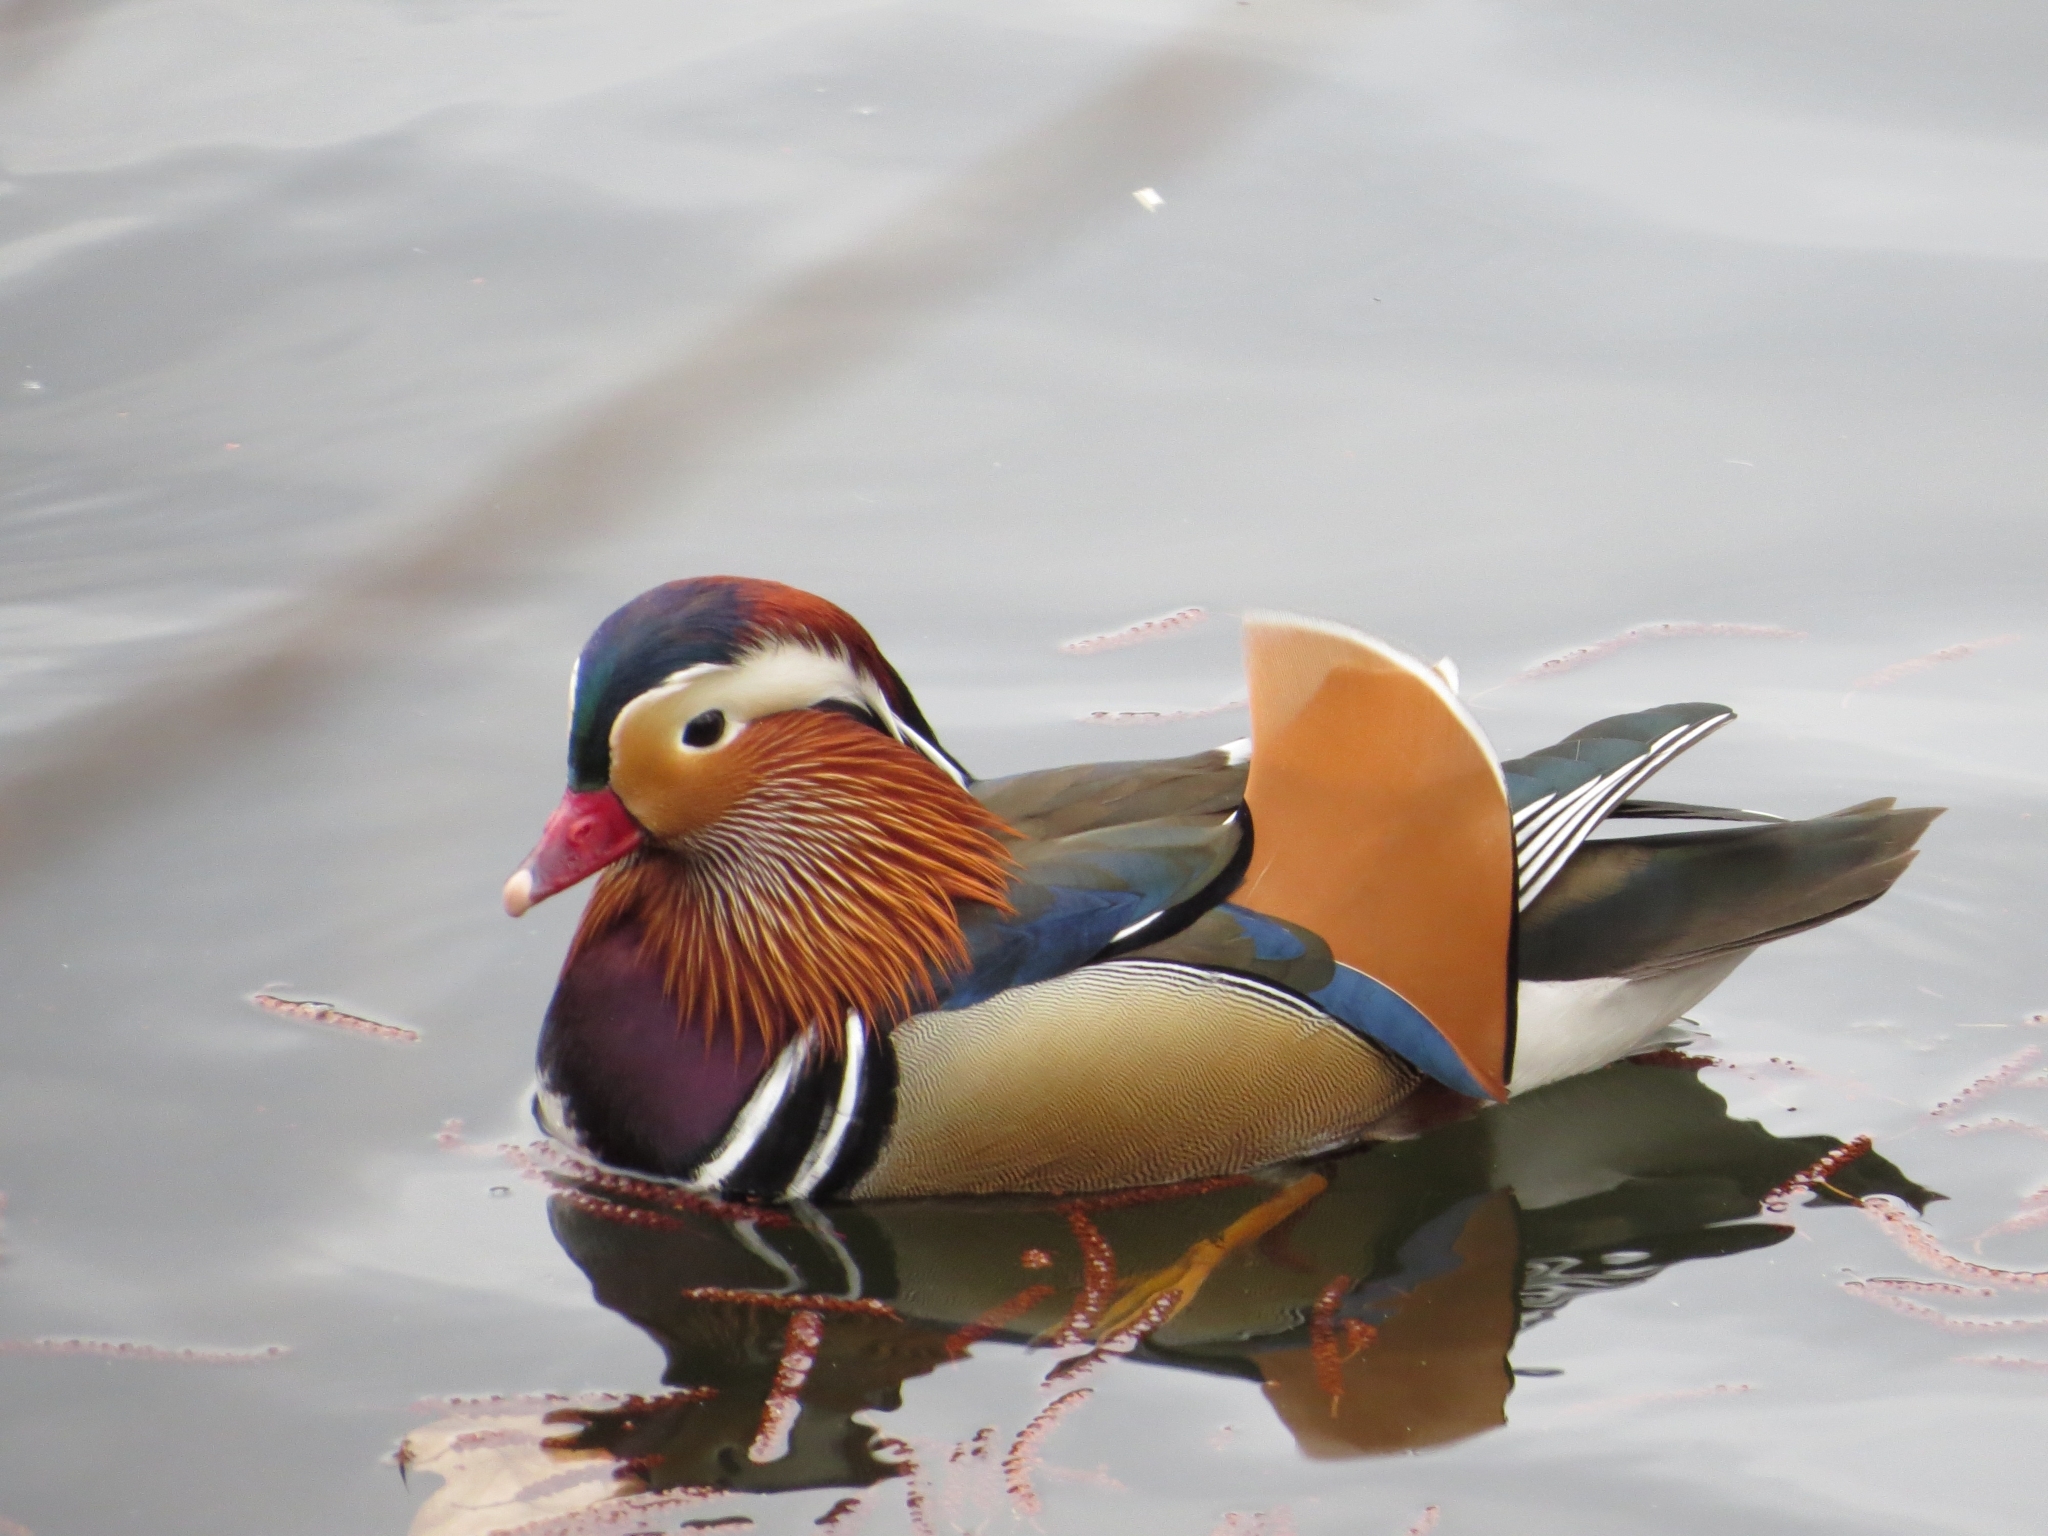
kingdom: Animalia
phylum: Chordata
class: Aves
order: Anseriformes
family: Anatidae
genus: Aix
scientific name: Aix galericulata
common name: Mandarin duck
